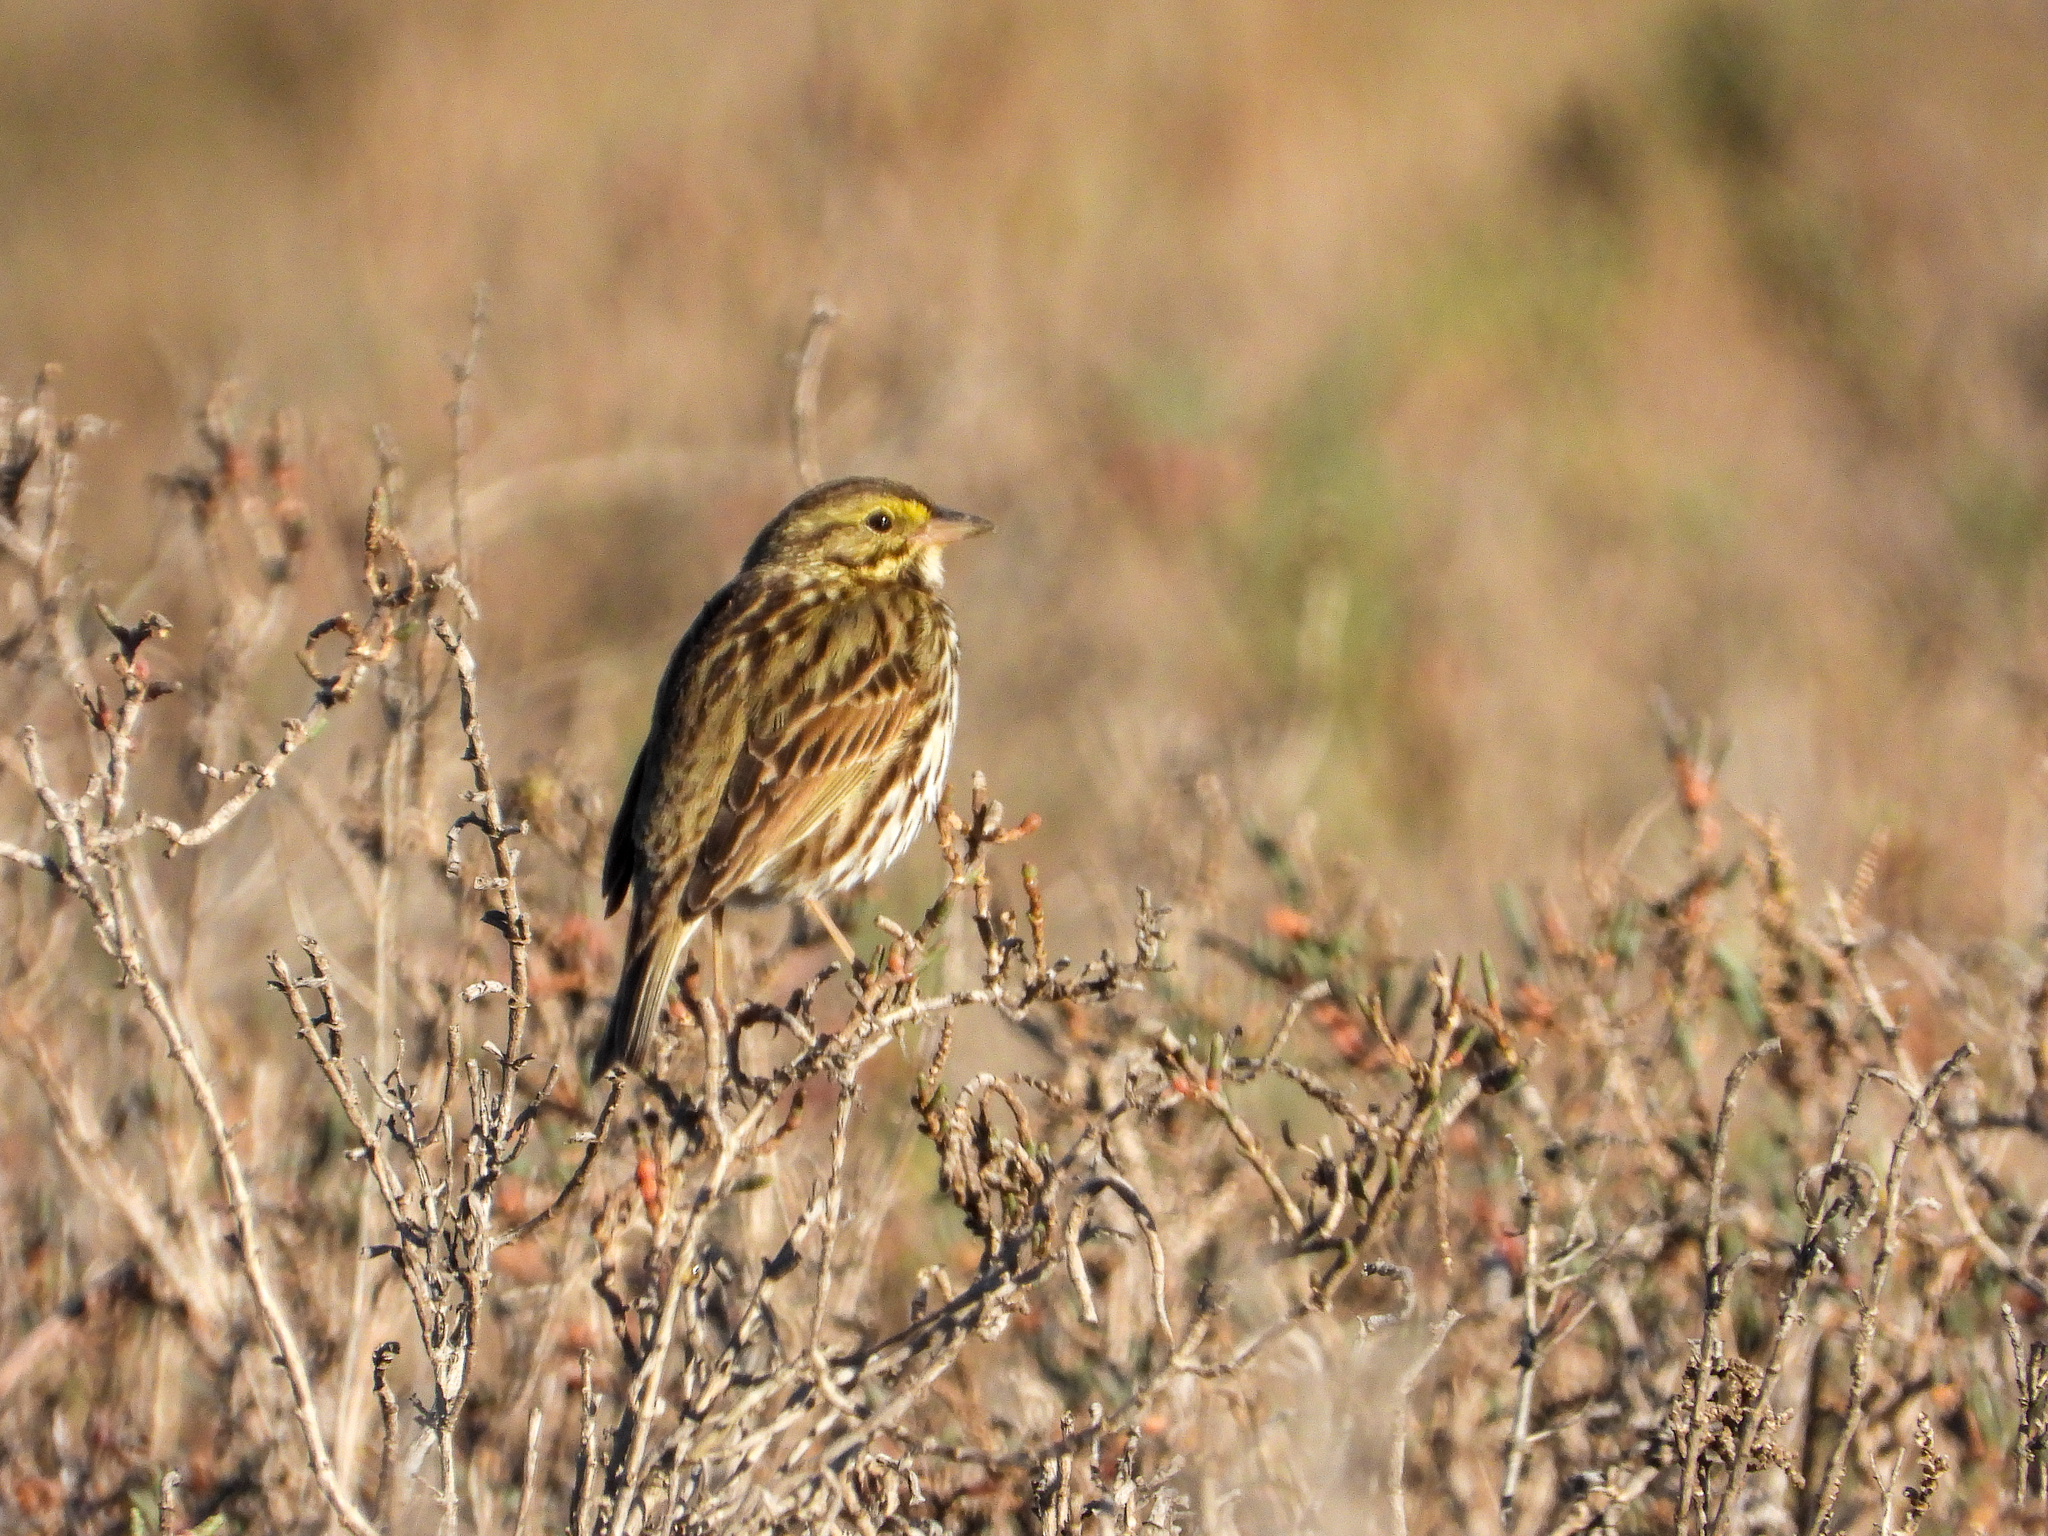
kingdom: Animalia
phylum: Chordata
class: Aves
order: Passeriformes
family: Passerellidae
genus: Passerculus
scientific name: Passerculus sandwichensis
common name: Savannah sparrow
